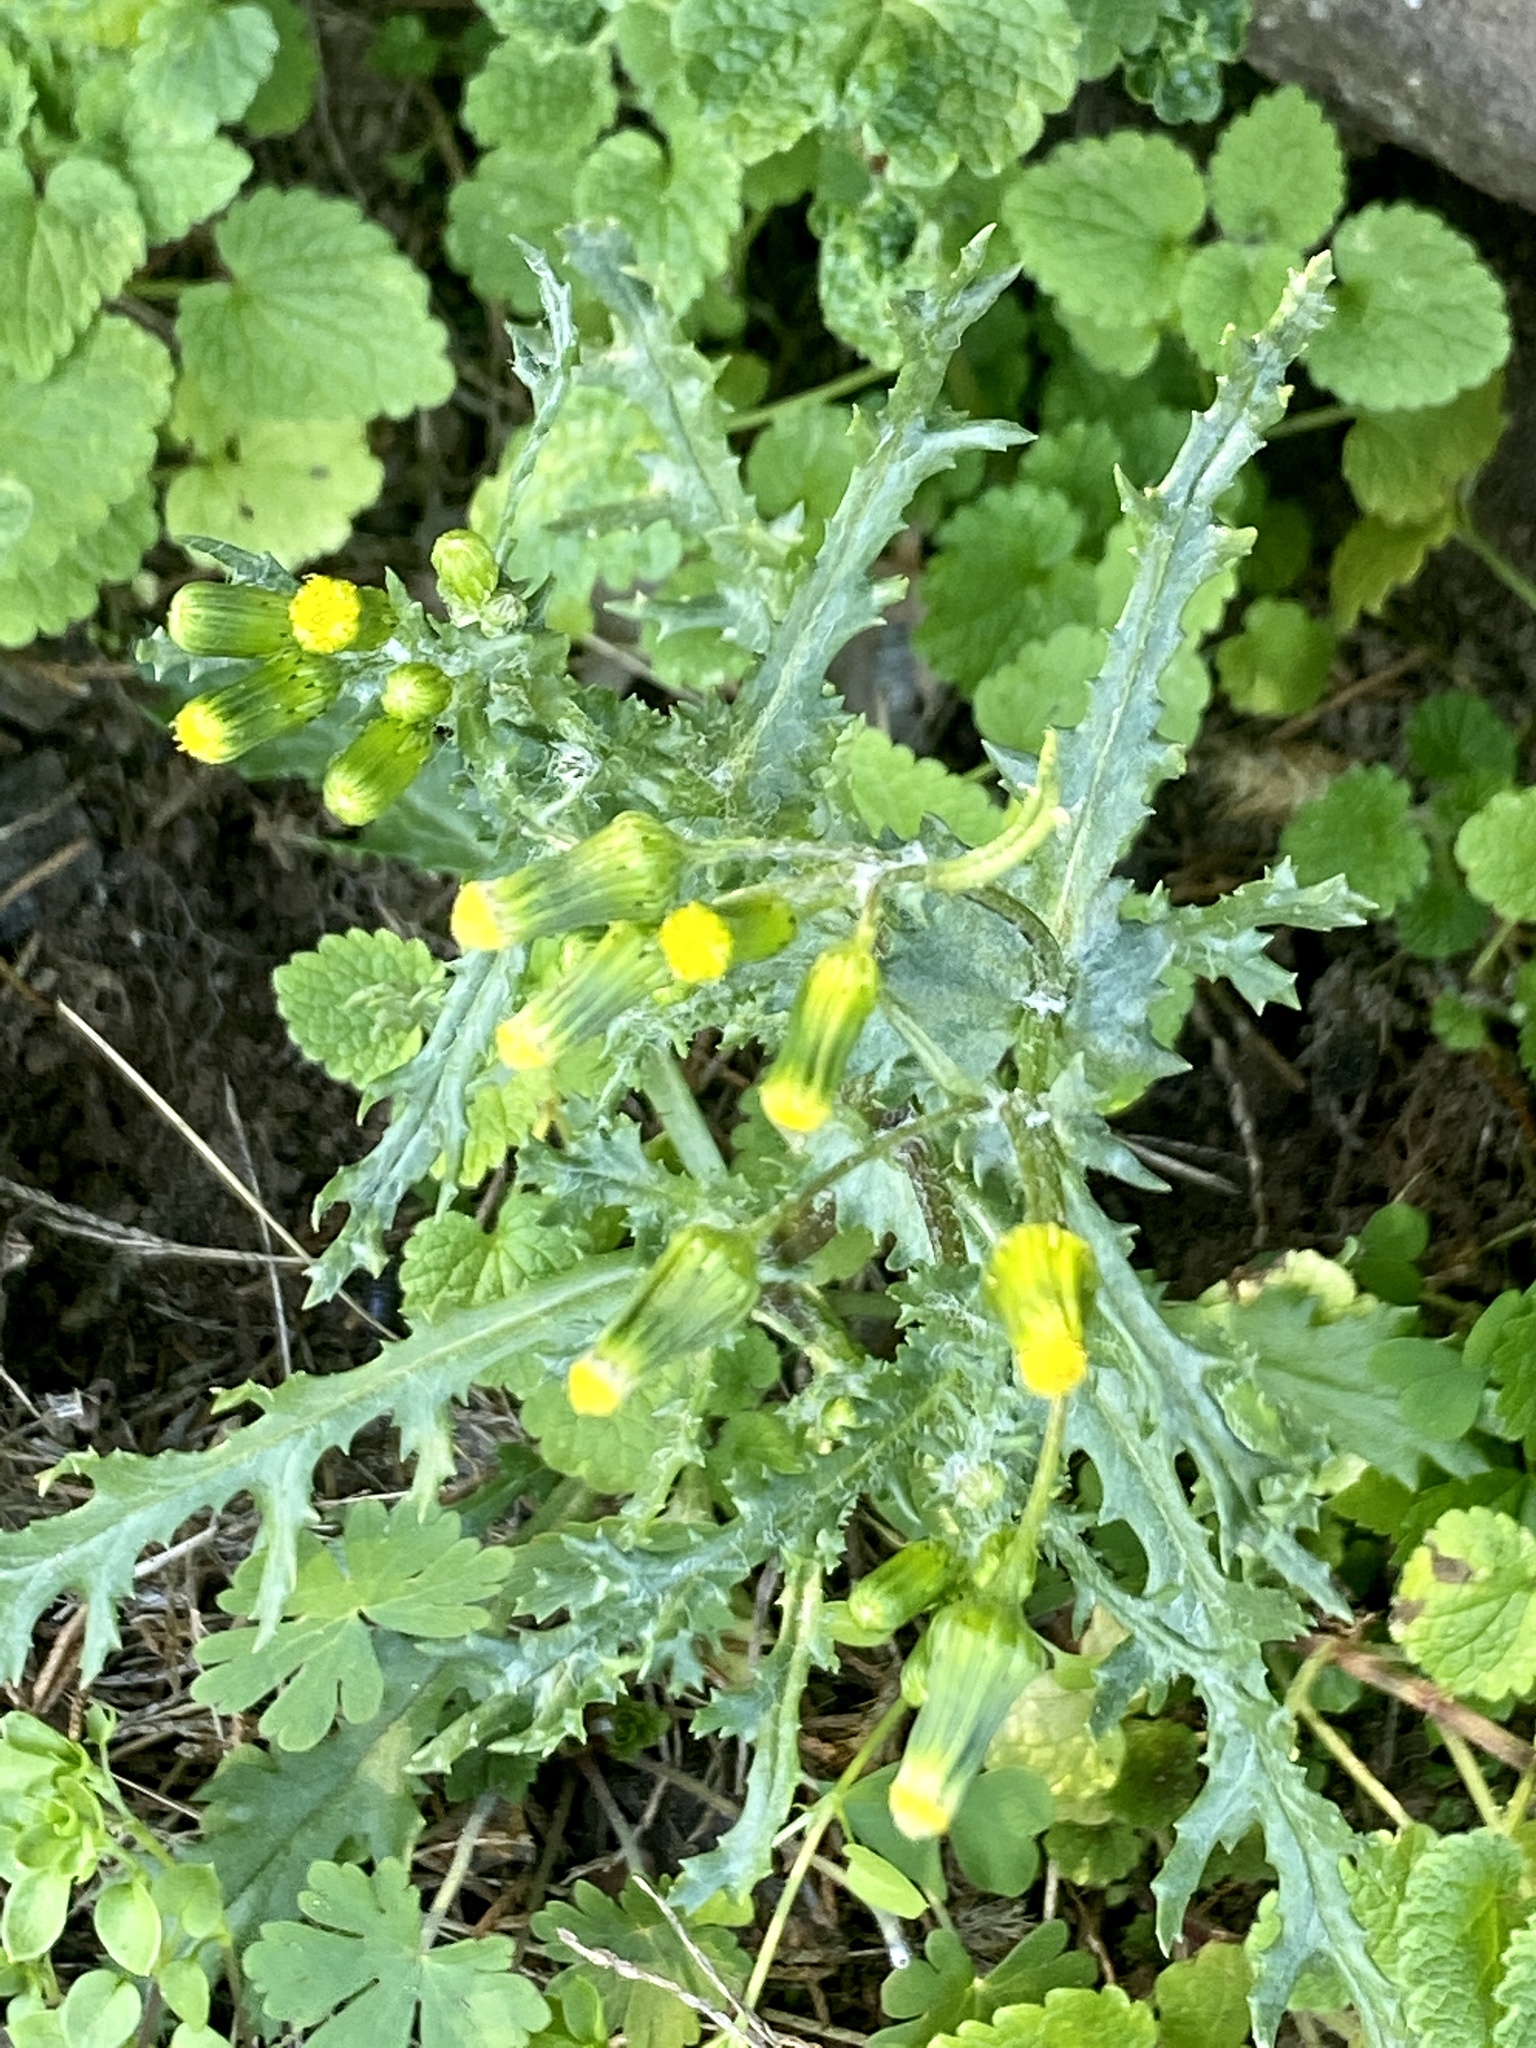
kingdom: Plantae
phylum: Tracheophyta
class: Magnoliopsida
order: Asterales
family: Asteraceae
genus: Senecio
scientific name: Senecio vulgaris
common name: Old-man-in-the-spring
